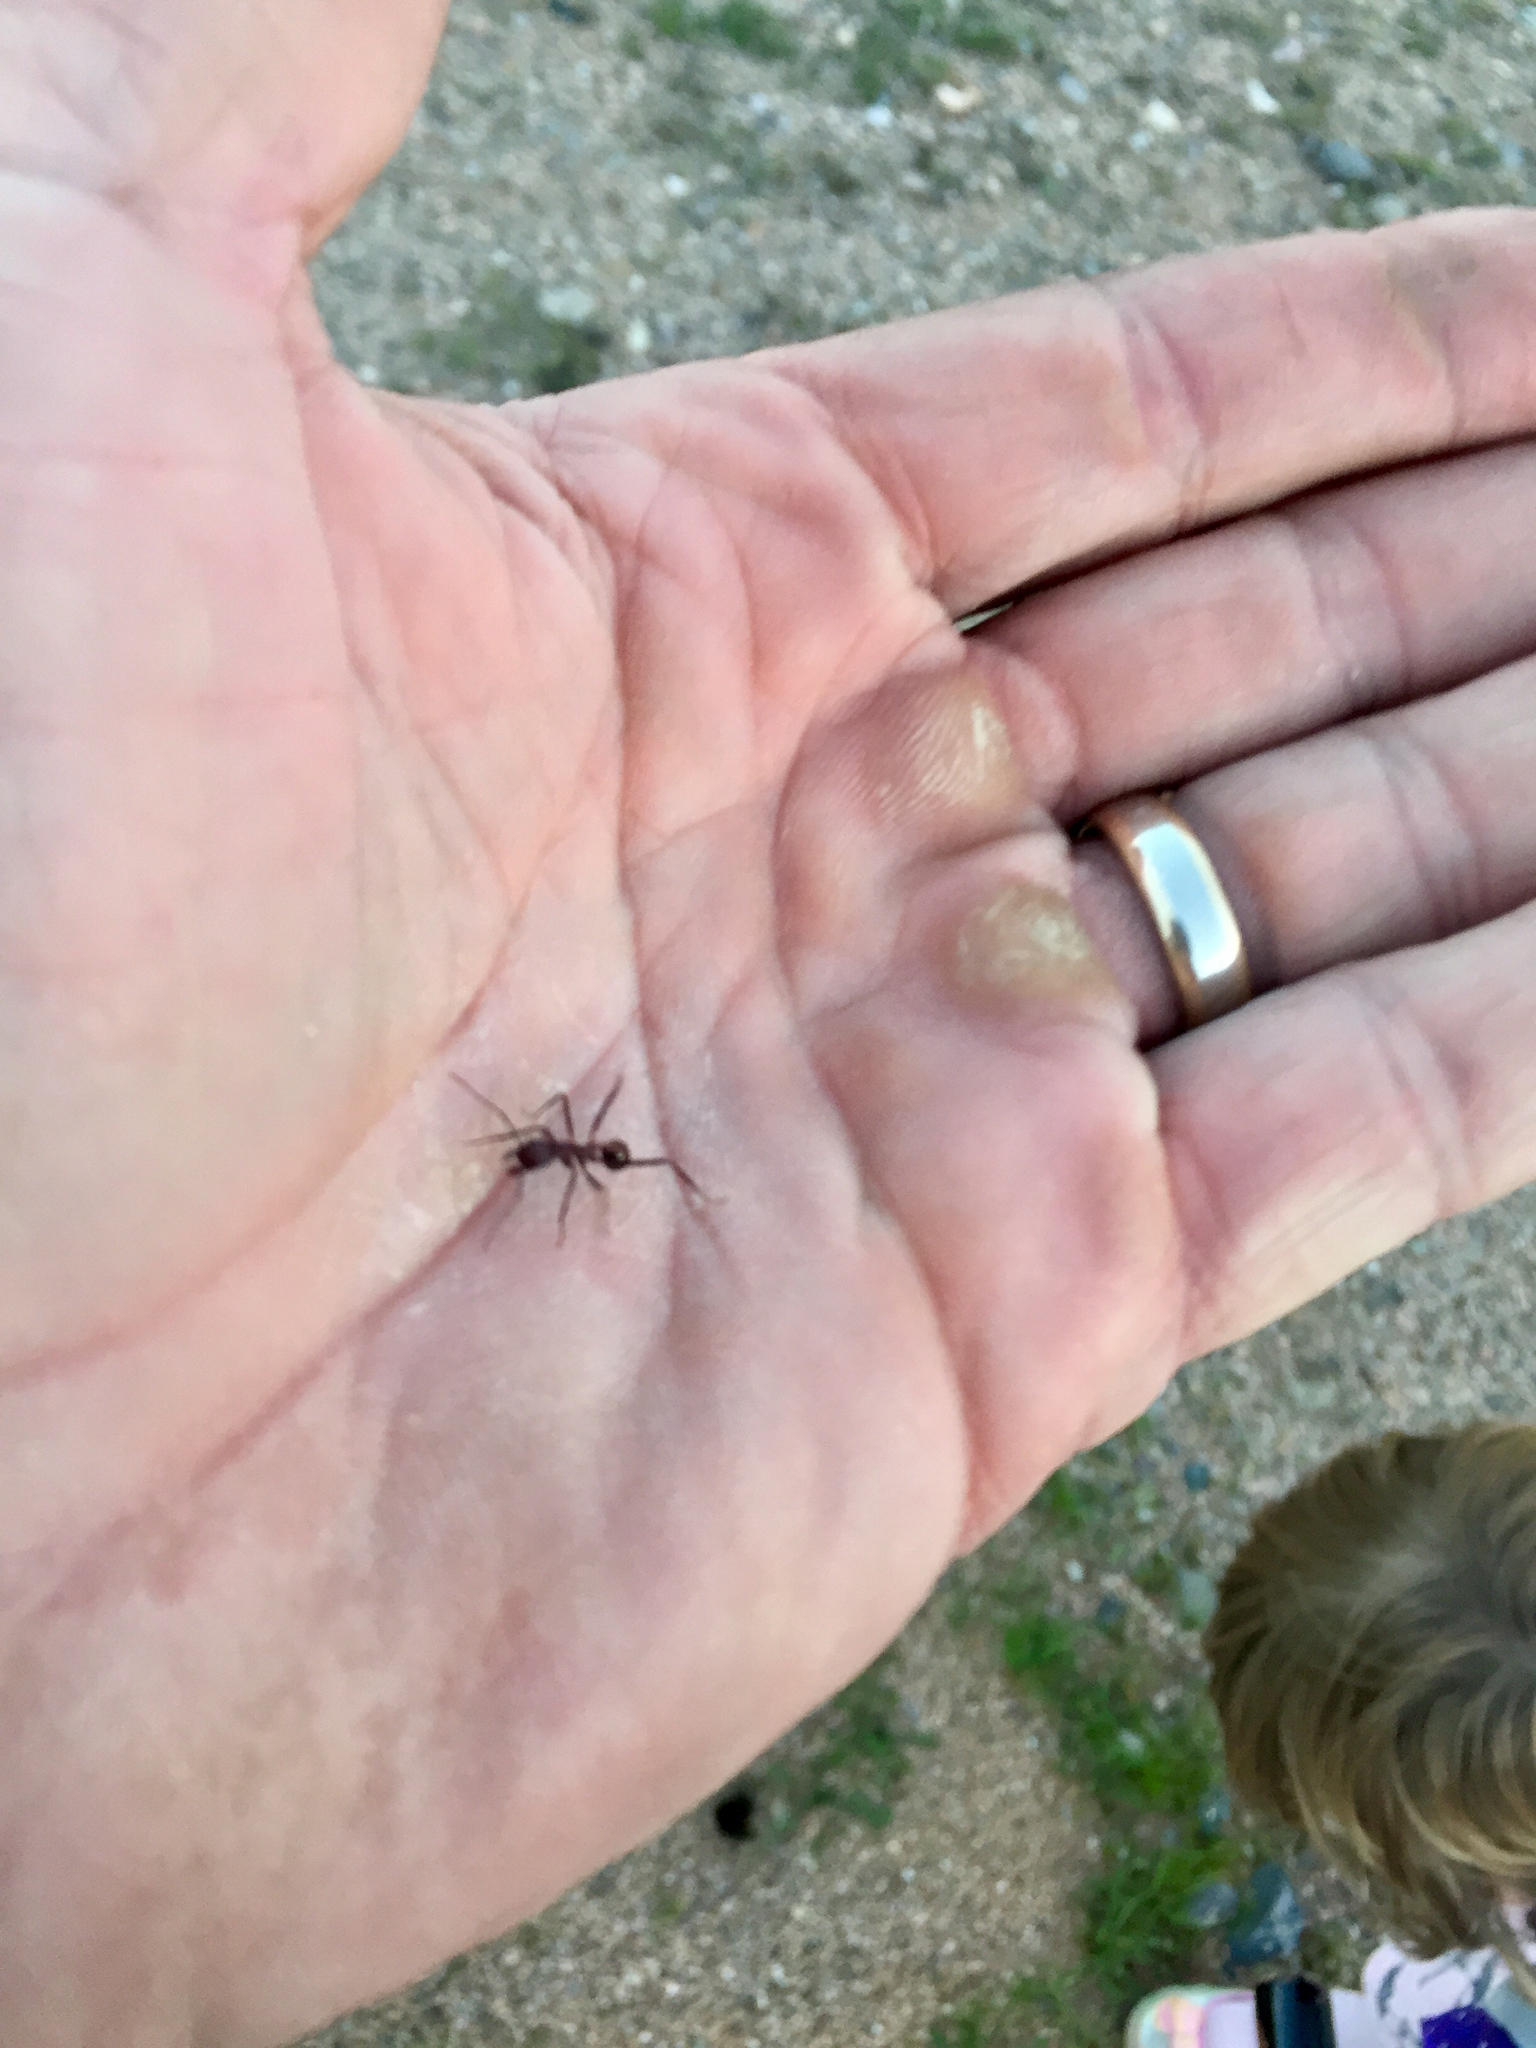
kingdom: Animalia
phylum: Arthropoda
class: Insecta
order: Hymenoptera
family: Formicidae
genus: Novomessor
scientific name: Novomessor cockerelli
